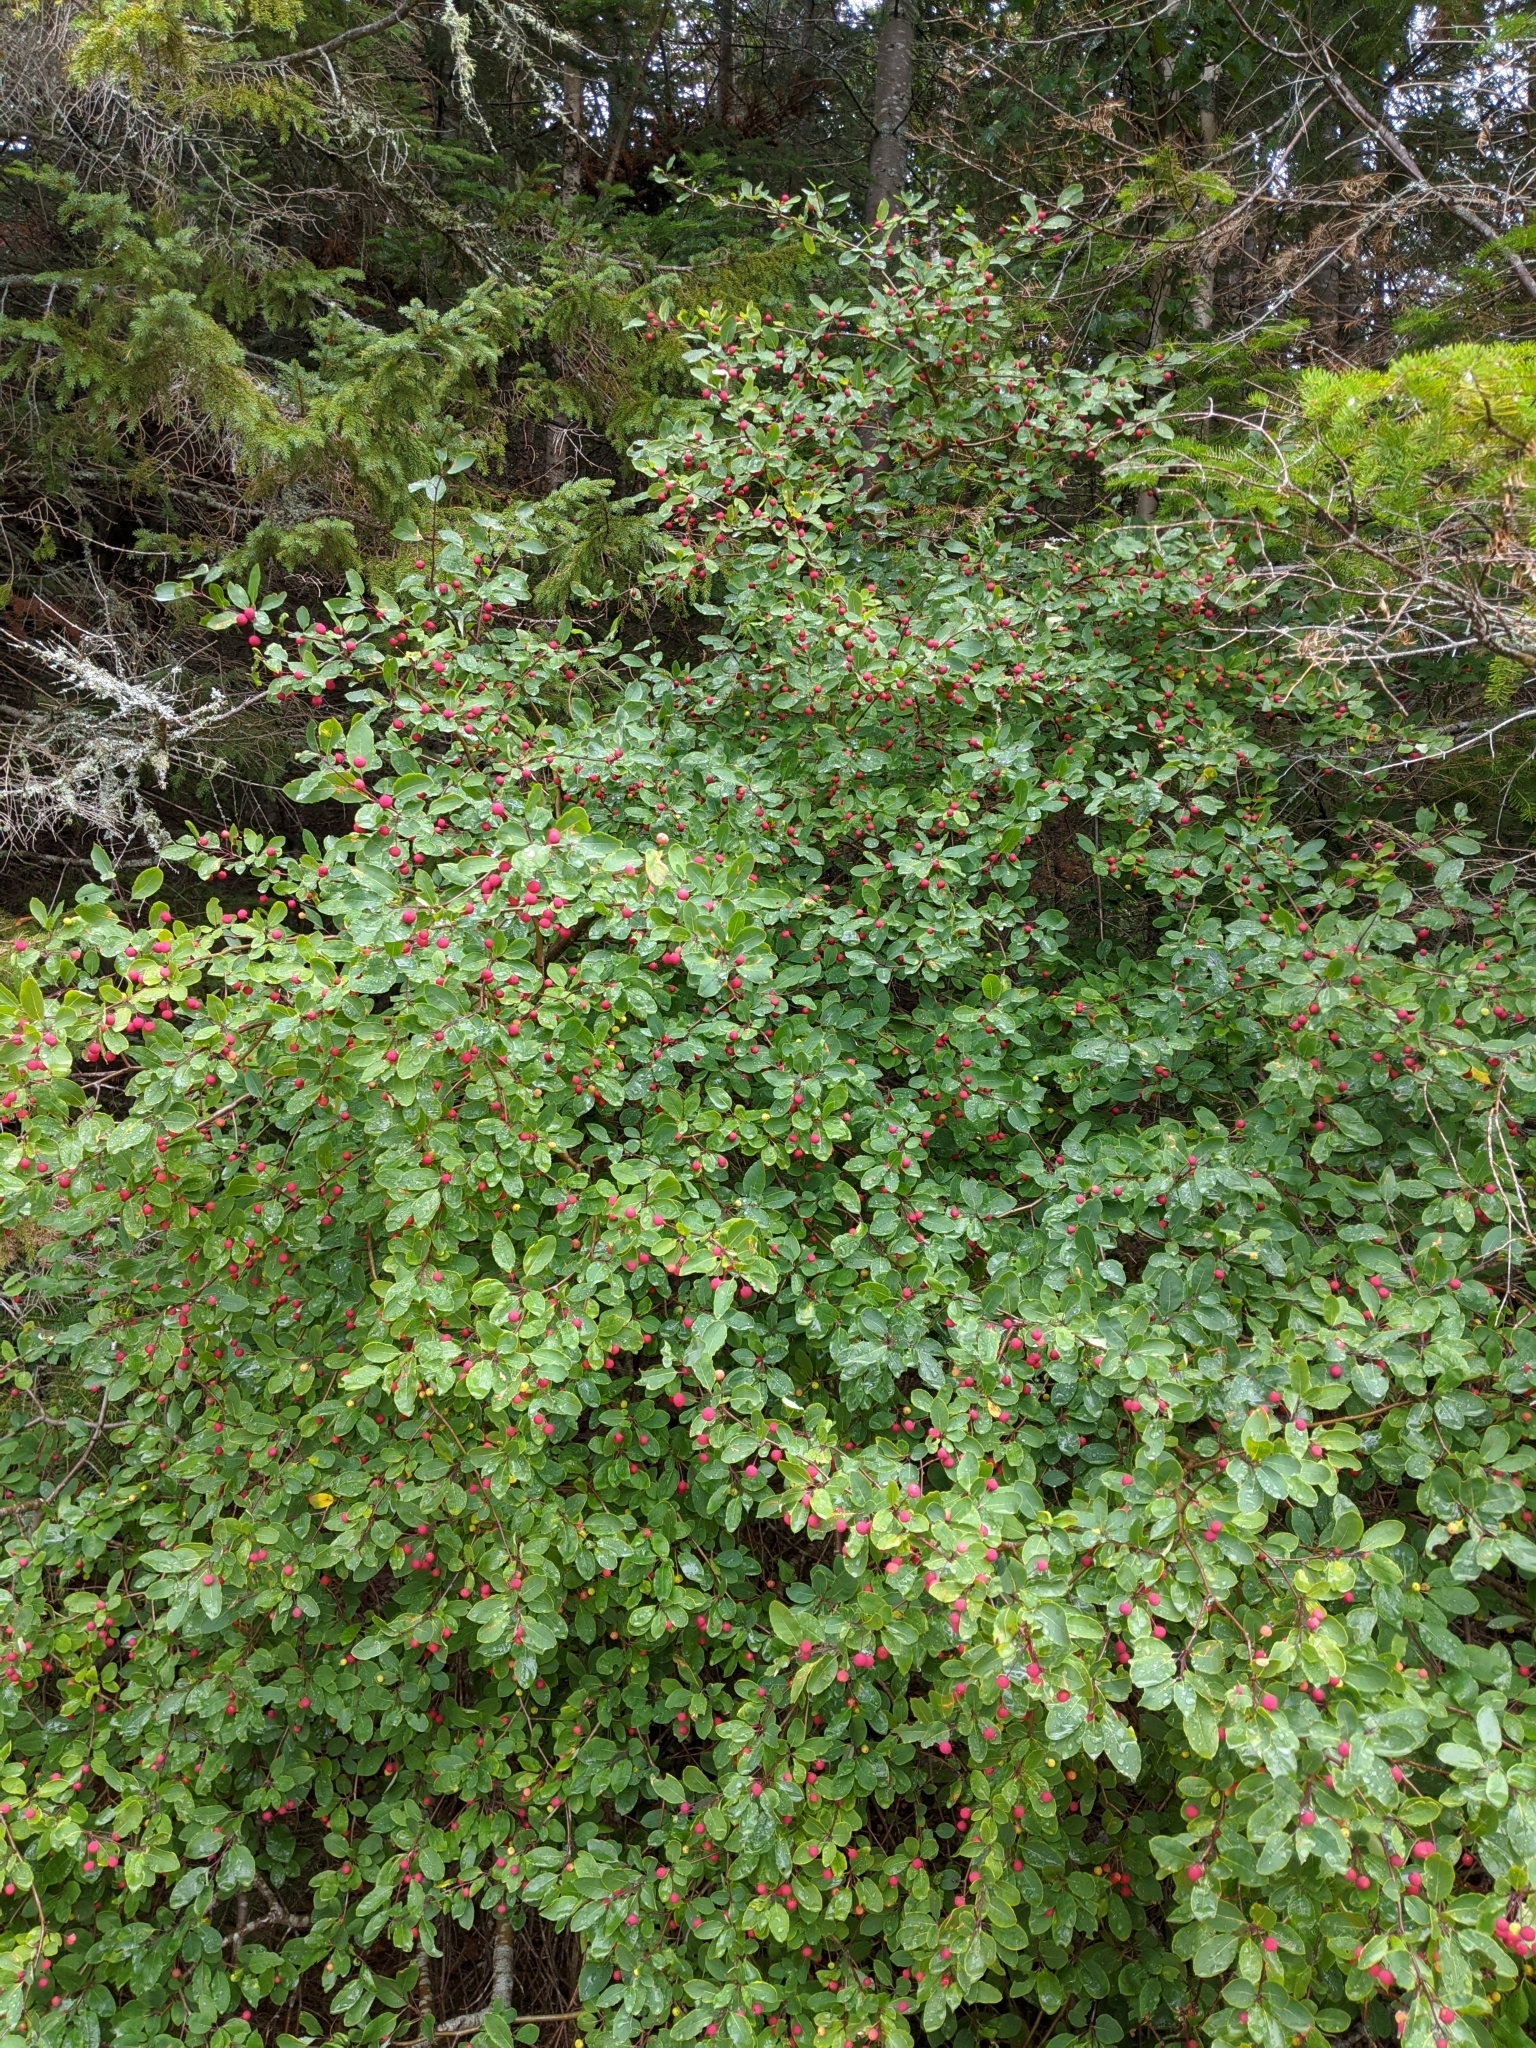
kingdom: Plantae
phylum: Tracheophyta
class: Magnoliopsida
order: Aquifoliales
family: Aquifoliaceae
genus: Ilex
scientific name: Ilex mucronata
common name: Catberry
